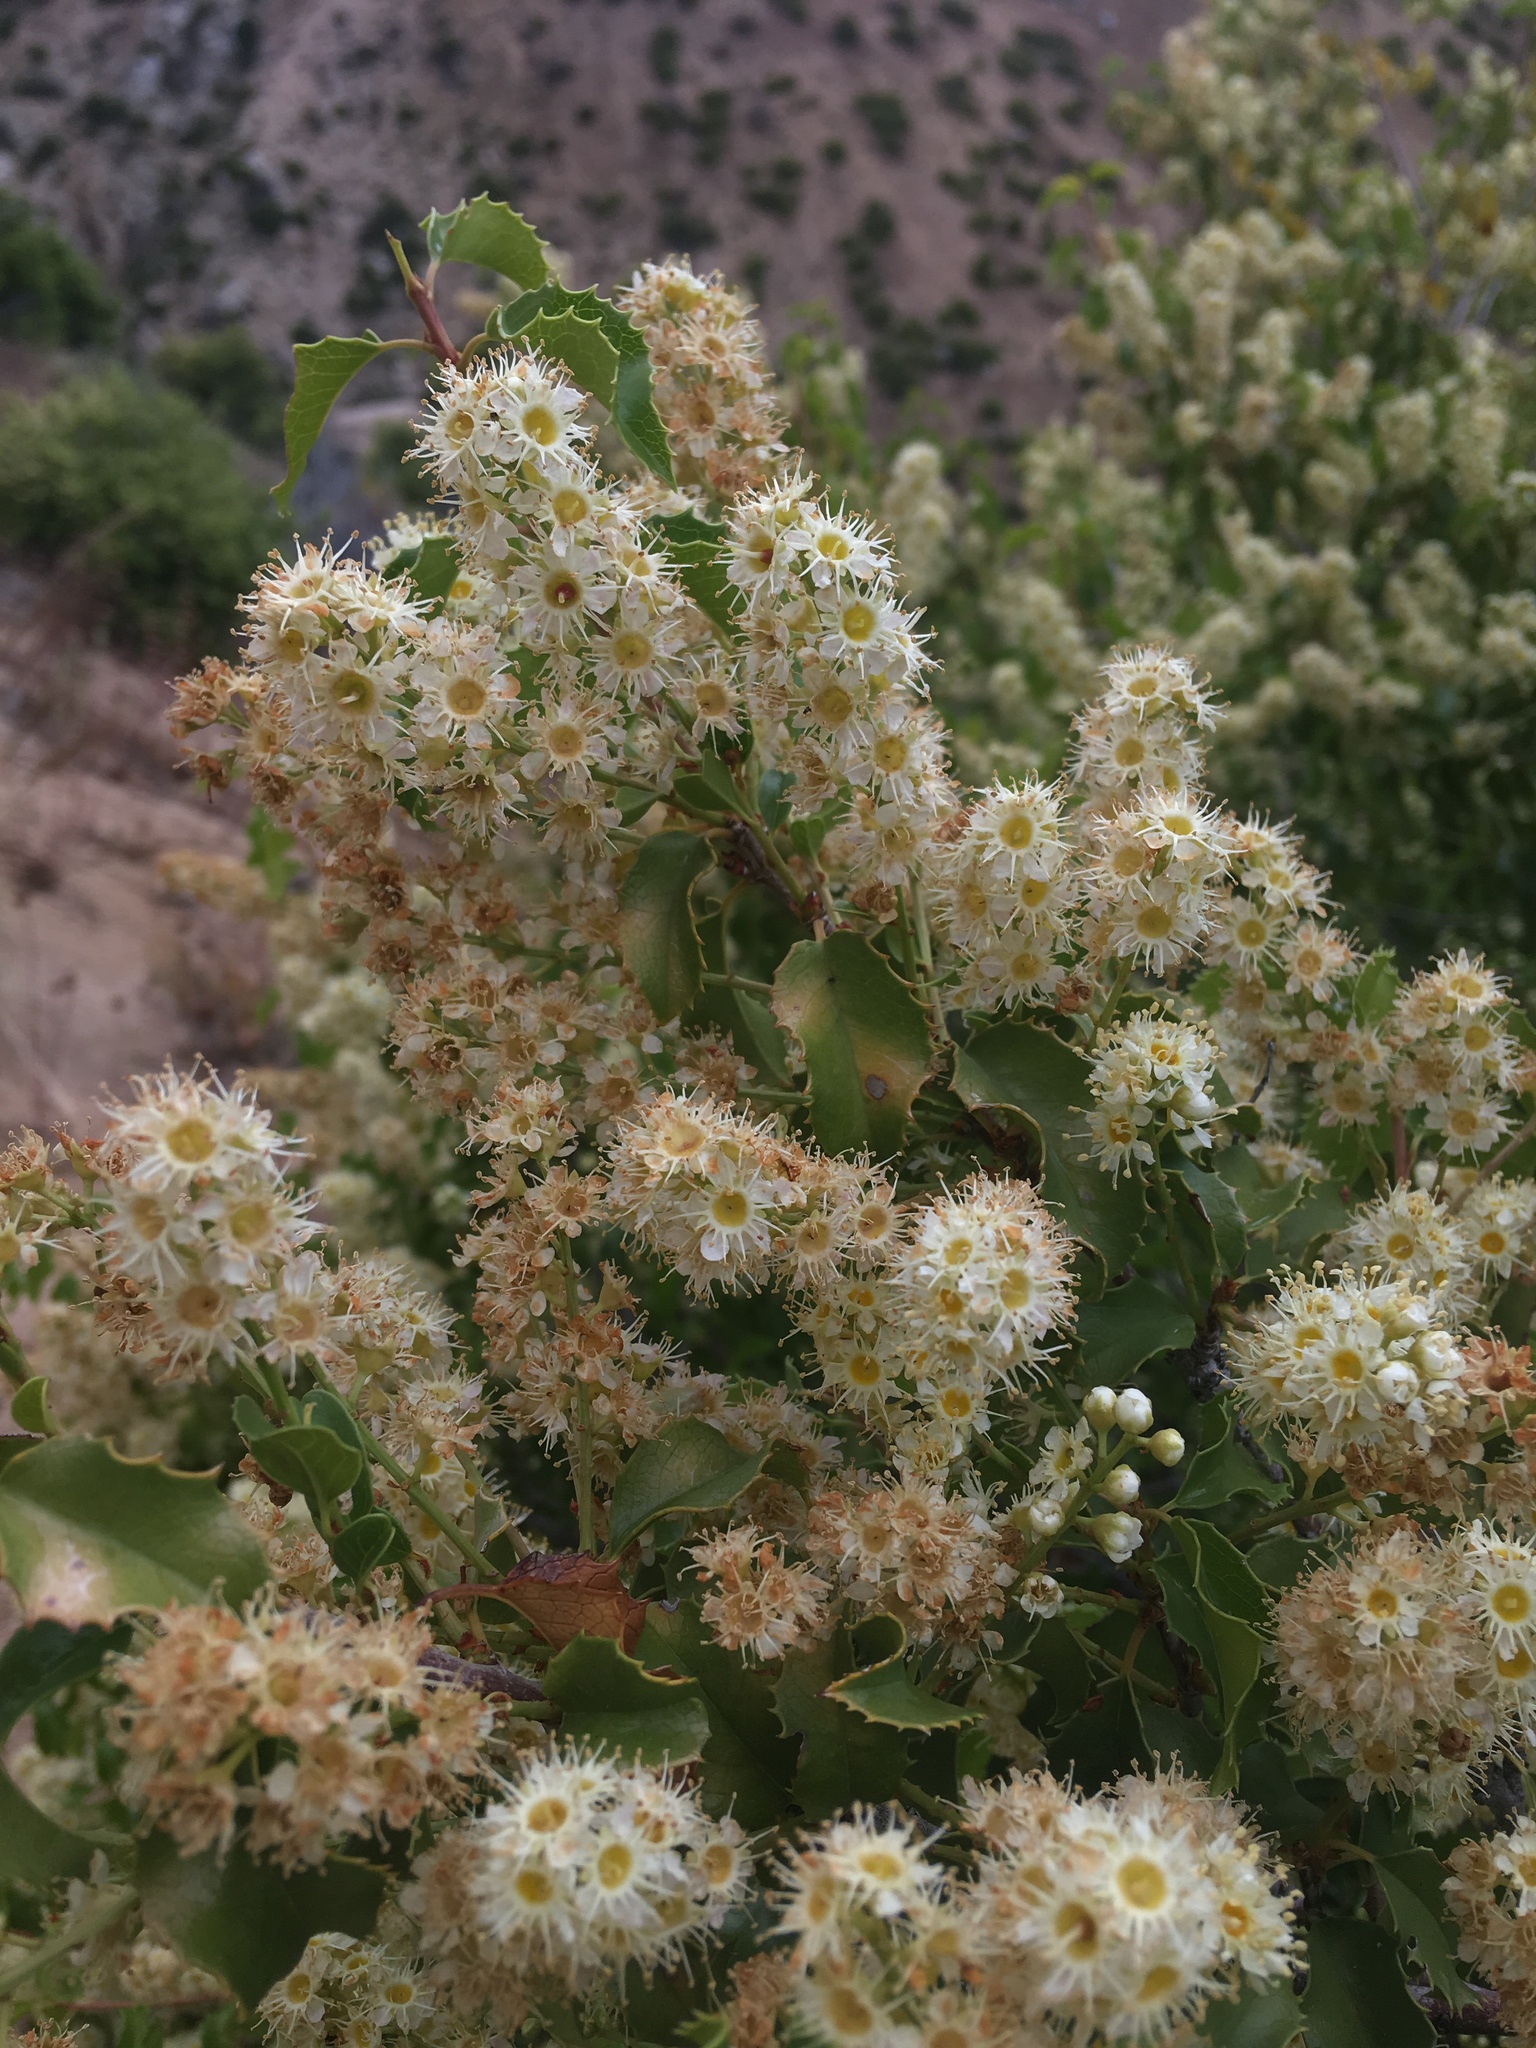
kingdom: Plantae
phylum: Tracheophyta
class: Magnoliopsida
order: Rosales
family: Rosaceae
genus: Prunus
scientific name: Prunus ilicifolia
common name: Hollyleaf cherry
